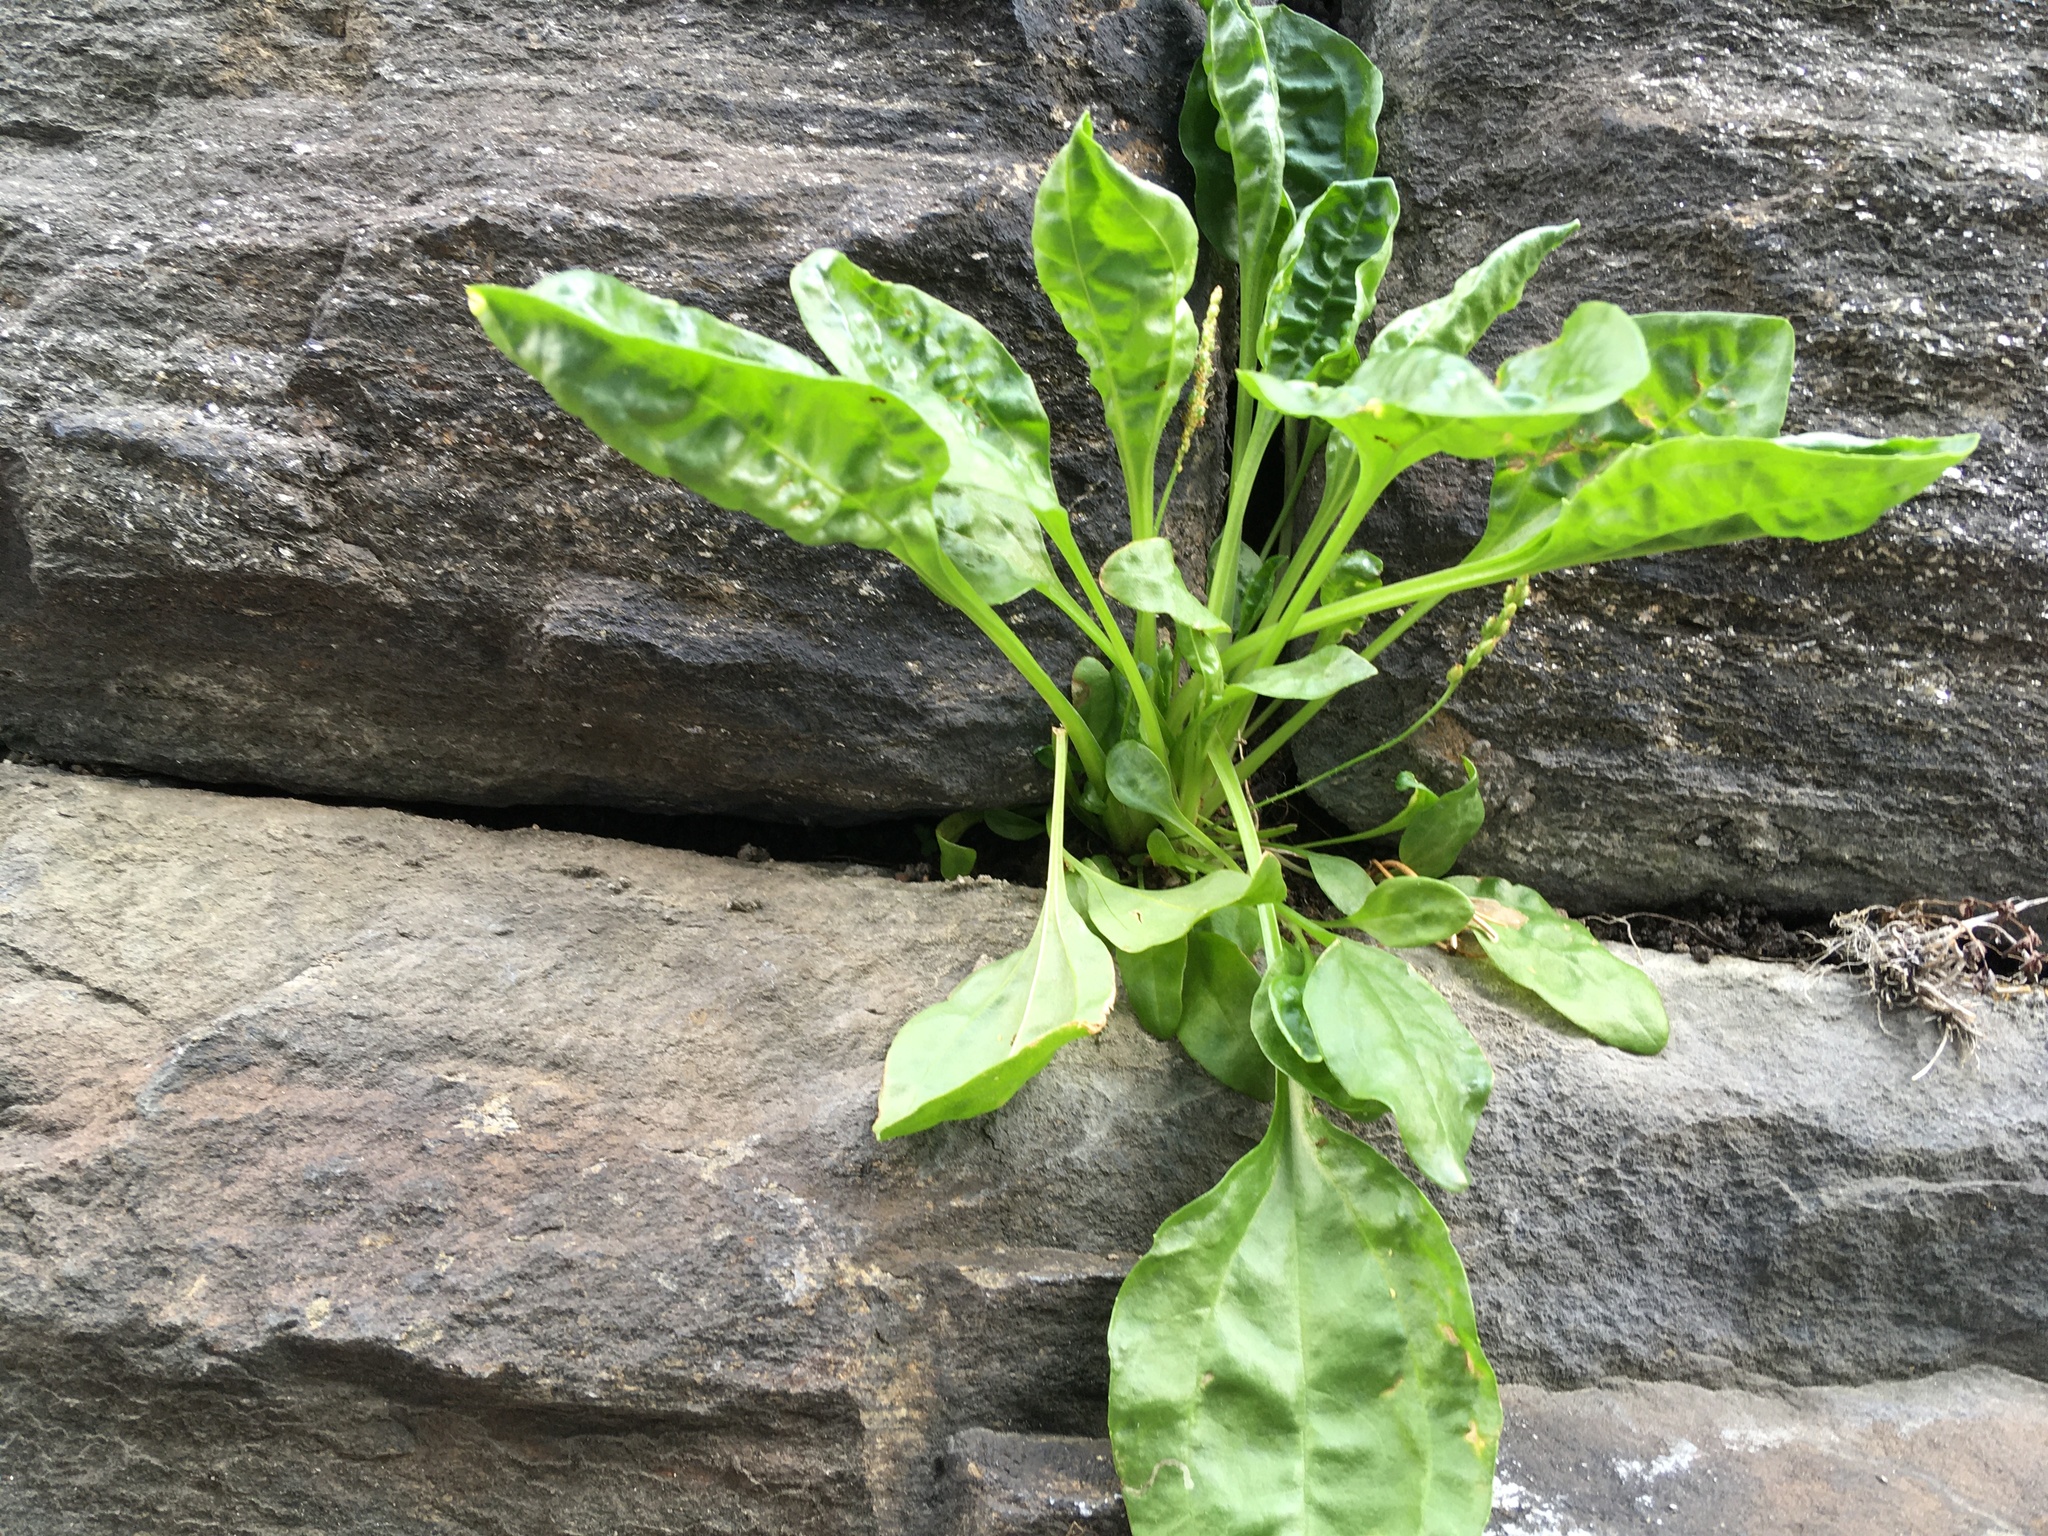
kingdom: Plantae
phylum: Tracheophyta
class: Magnoliopsida
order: Lamiales
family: Plantaginaceae
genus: Plantago
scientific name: Plantago major
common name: Common plantain
